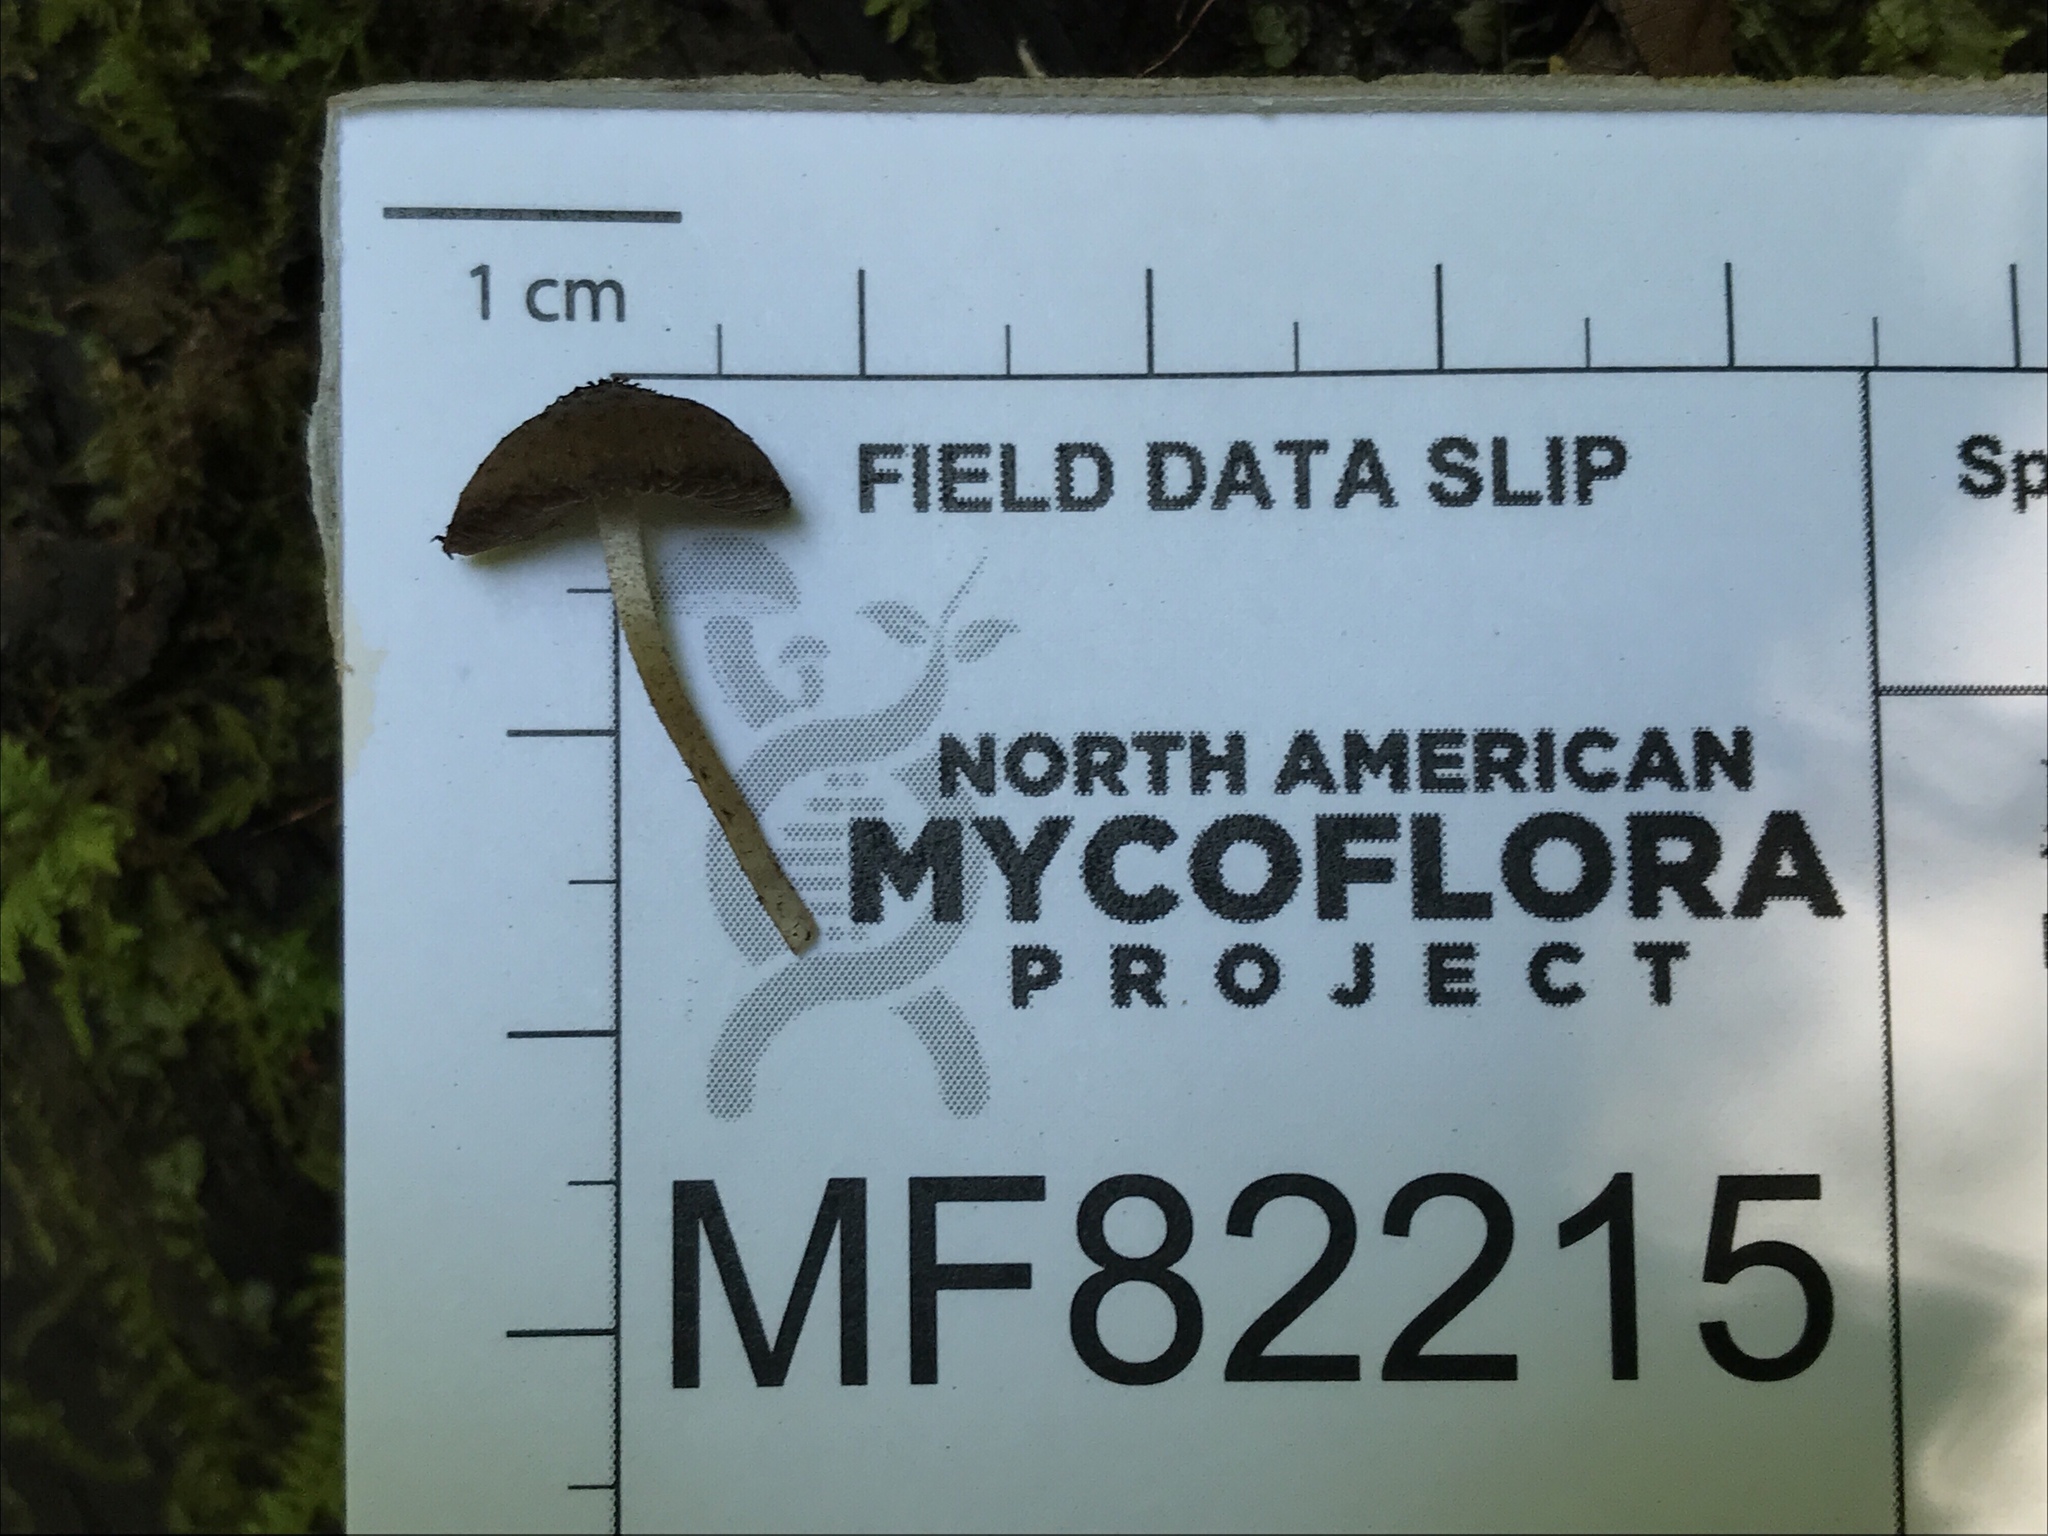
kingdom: Fungi
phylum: Basidiomycota
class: Agaricomycetes
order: Agaricales
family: Psathyrellaceae
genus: Cystoagaricus
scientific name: Cystoagaricus hirtosquamulosus
